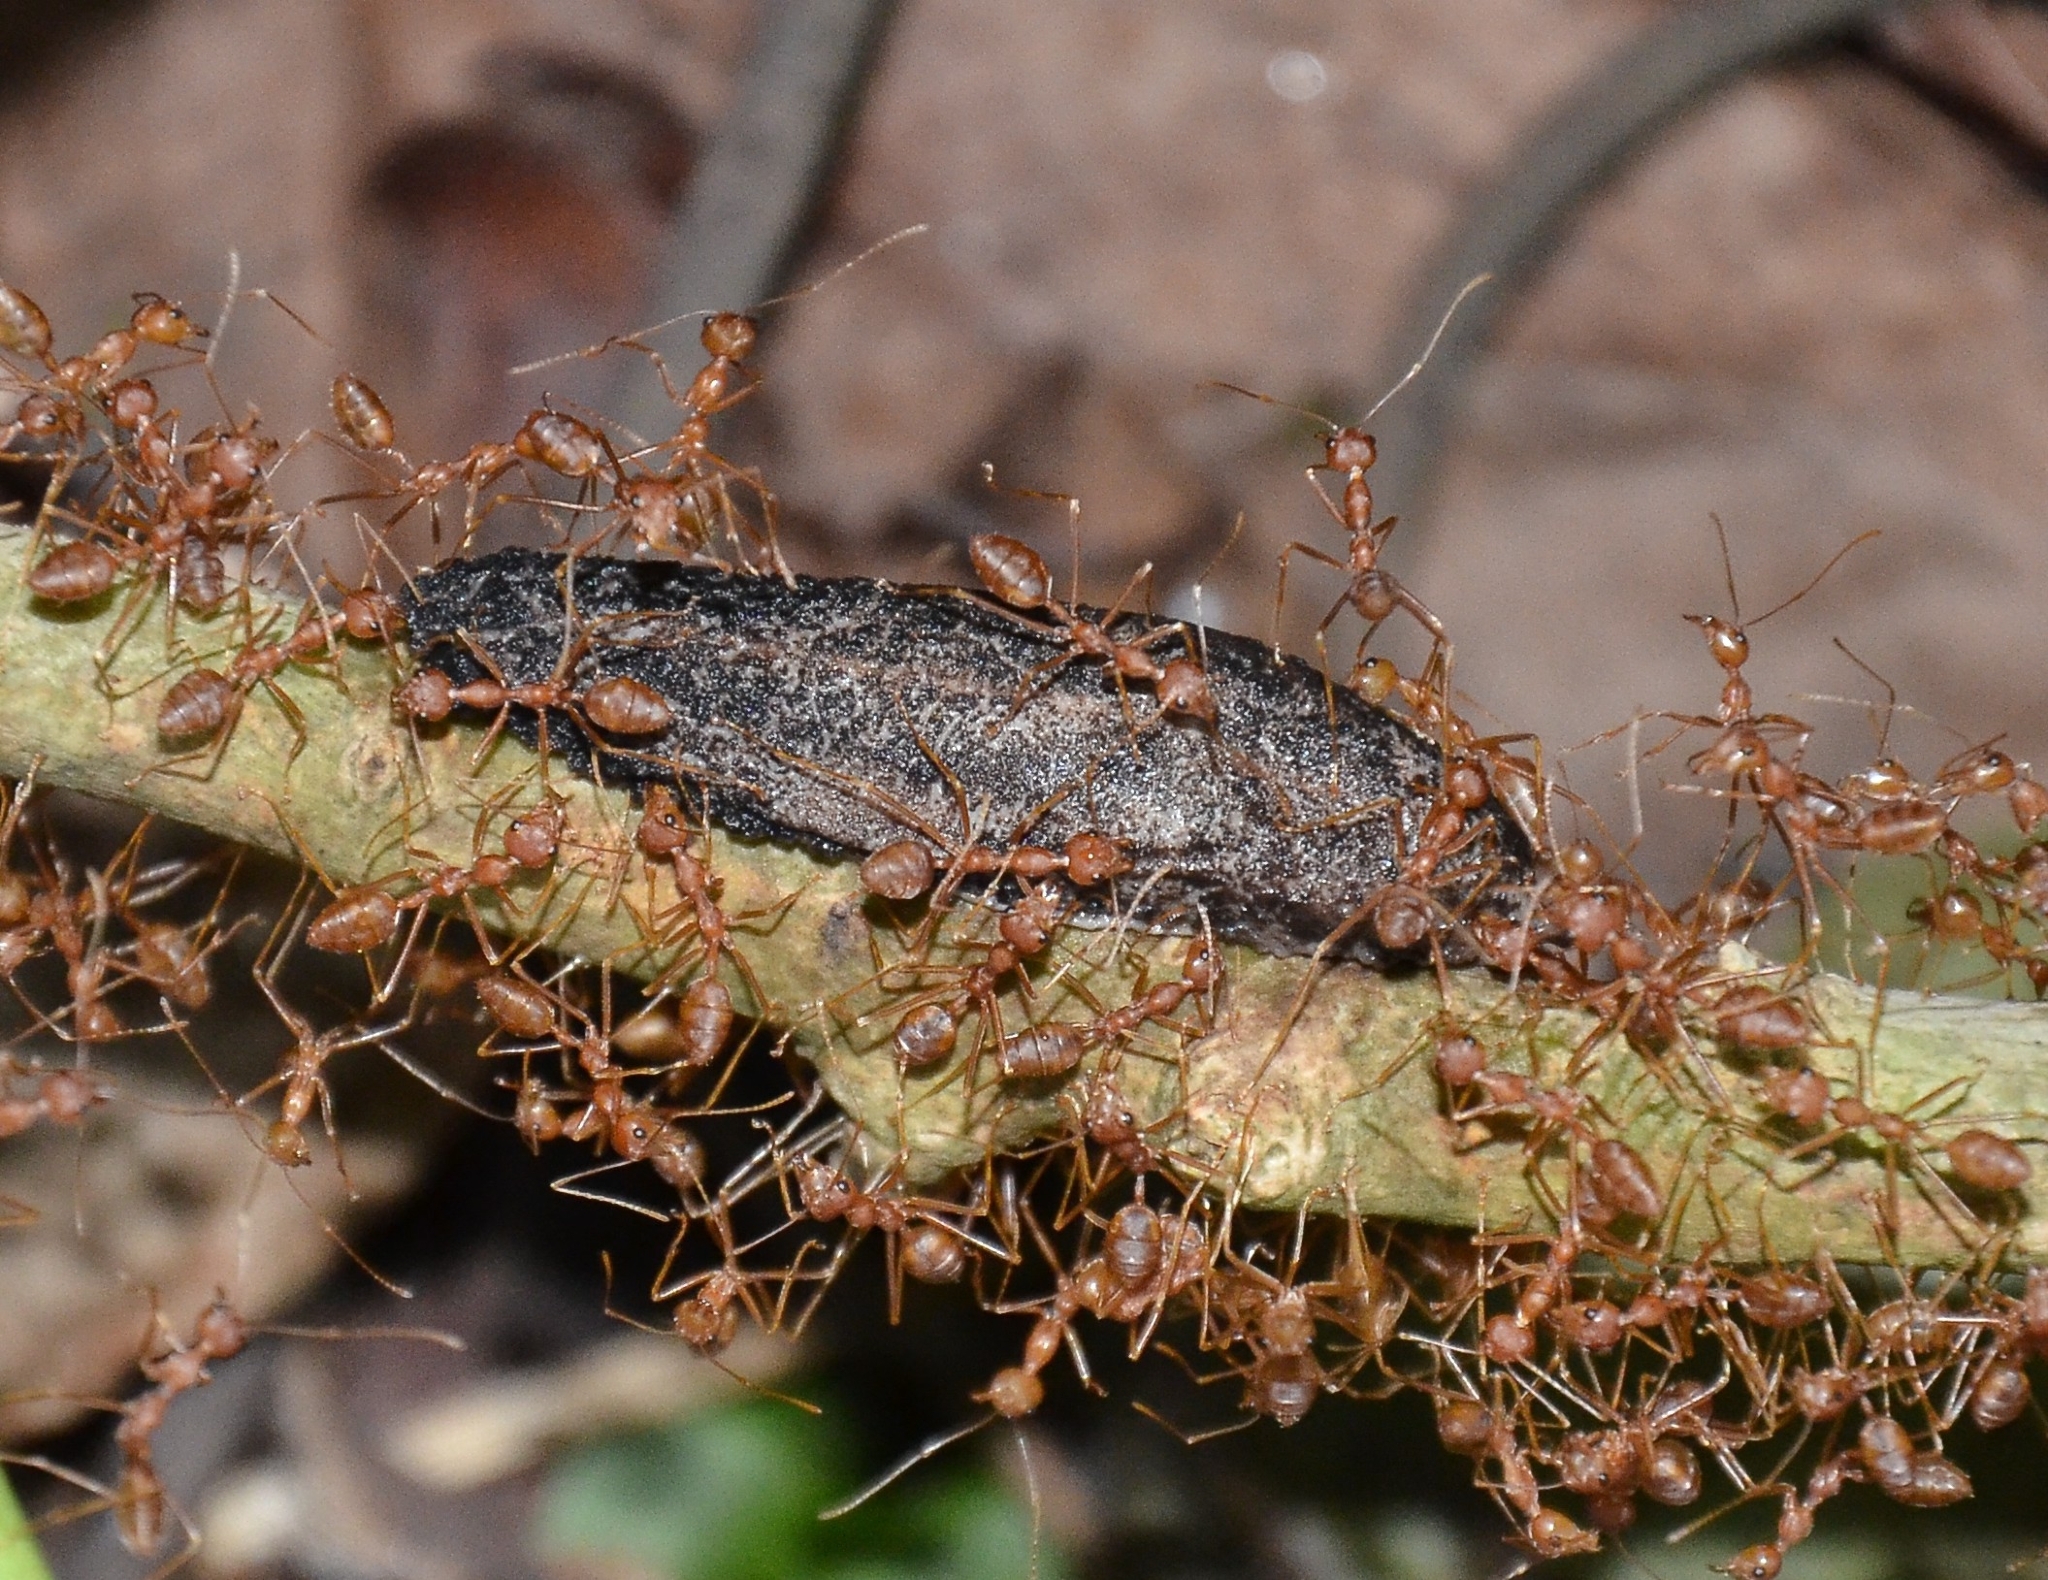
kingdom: Animalia
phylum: Arthropoda
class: Insecta
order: Hymenoptera
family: Formicidae
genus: Oecophylla
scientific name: Oecophylla smaragdina
